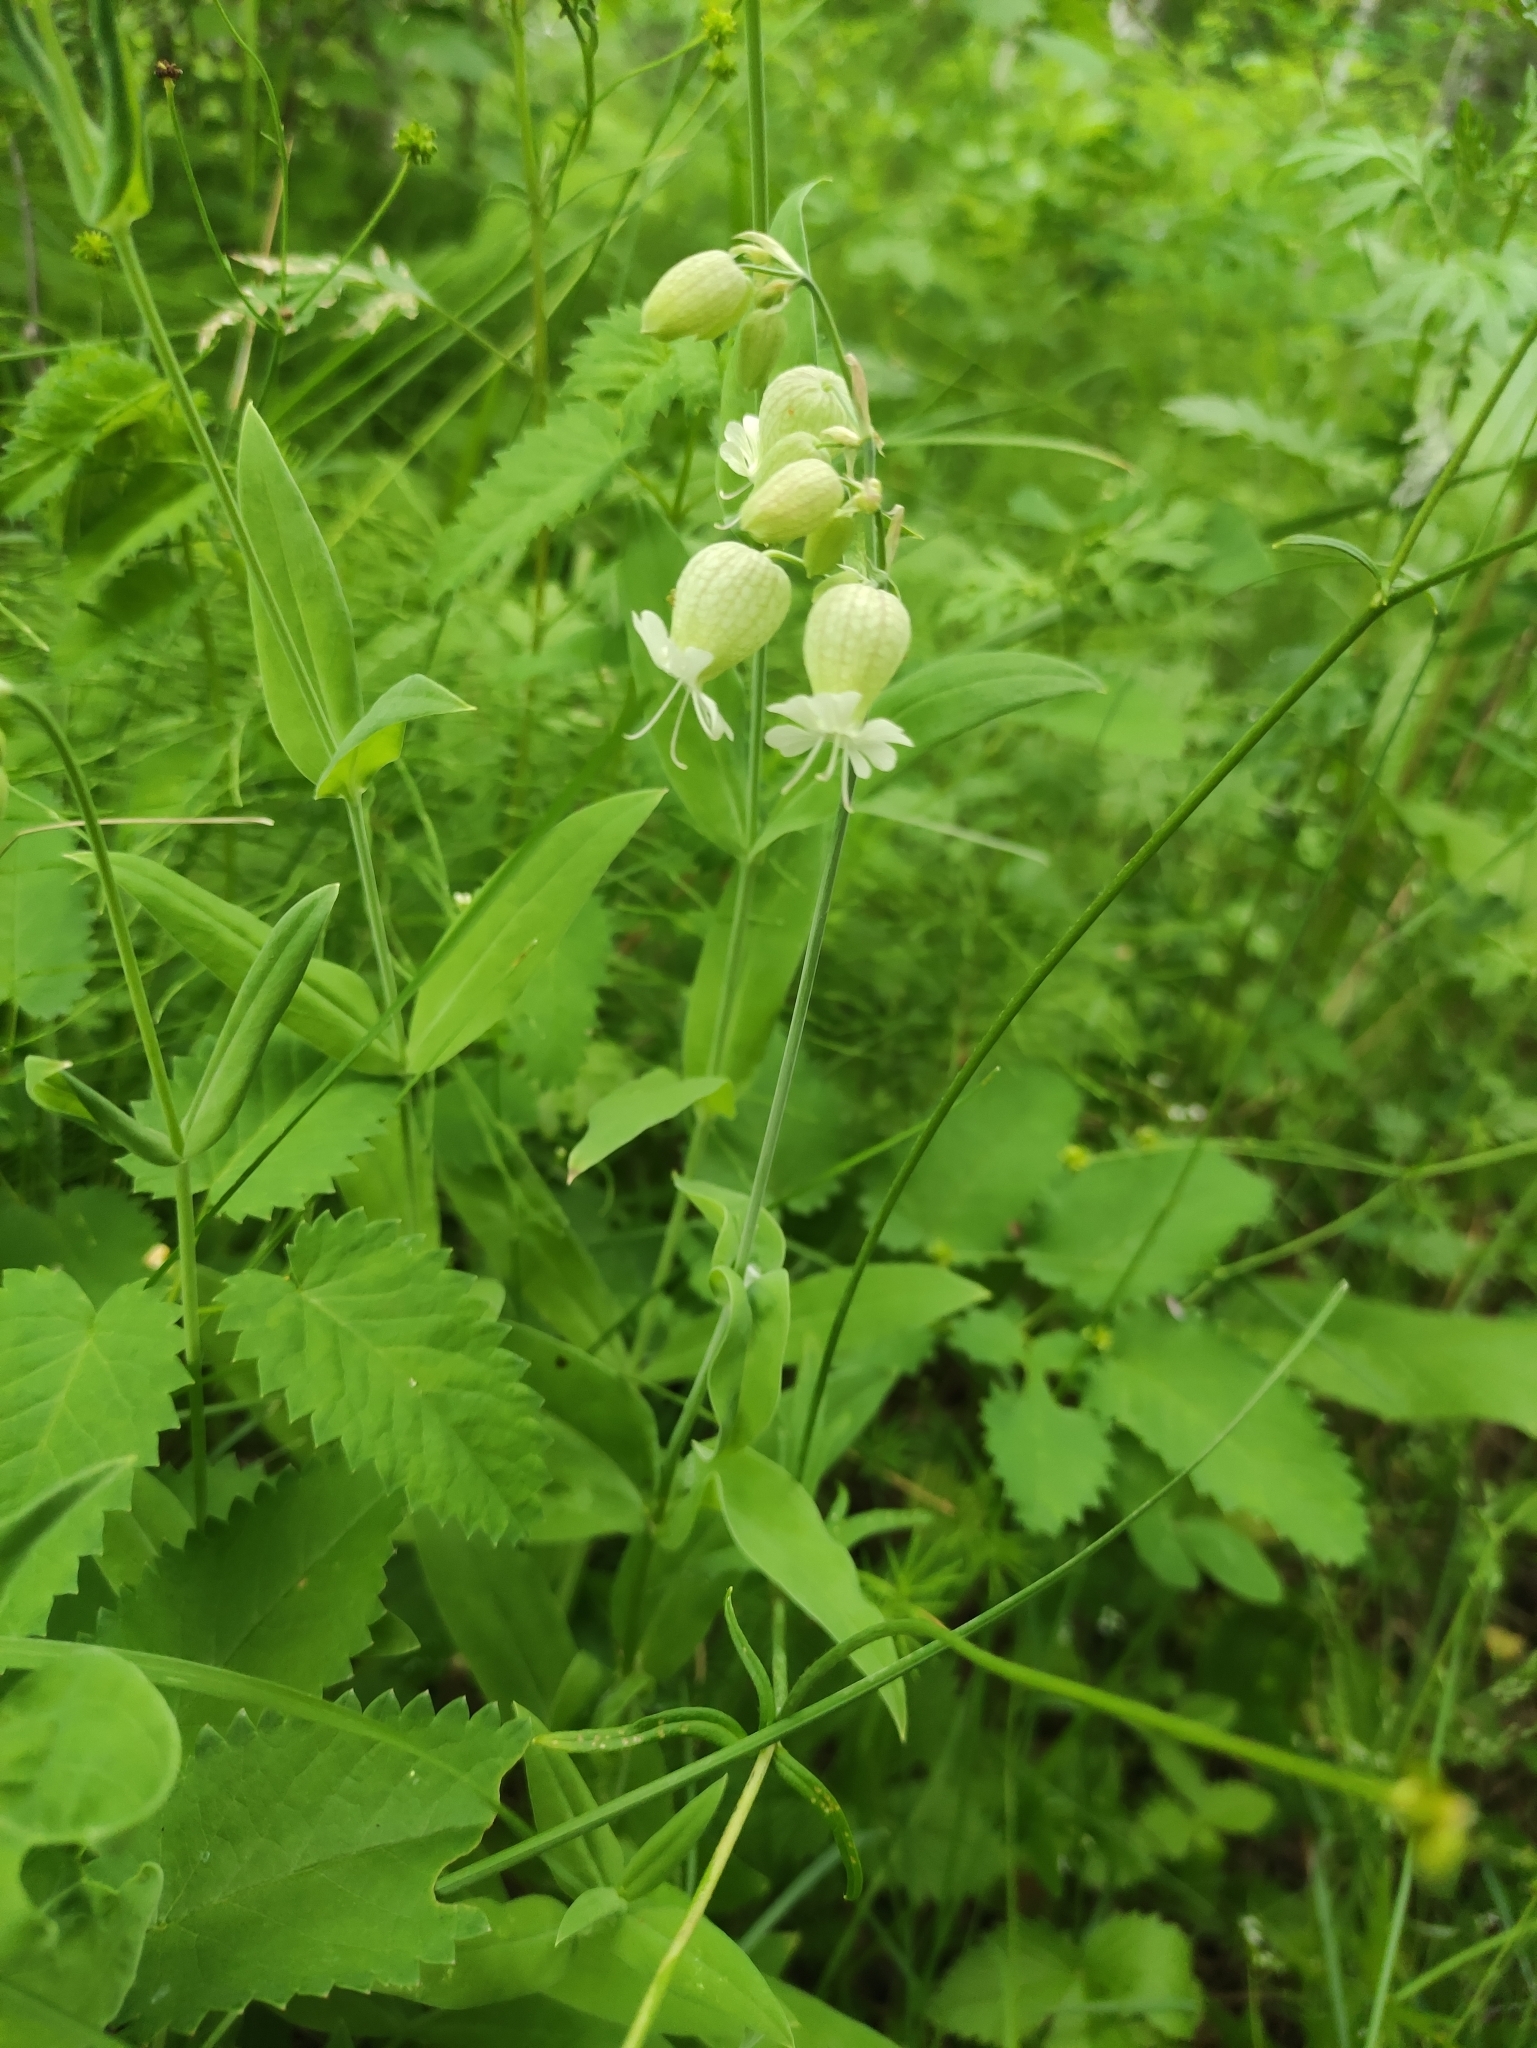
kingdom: Plantae
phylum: Tracheophyta
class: Magnoliopsida
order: Caryophyllales
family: Caryophyllaceae
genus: Silene
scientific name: Silene vulgaris
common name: Bladder campion
